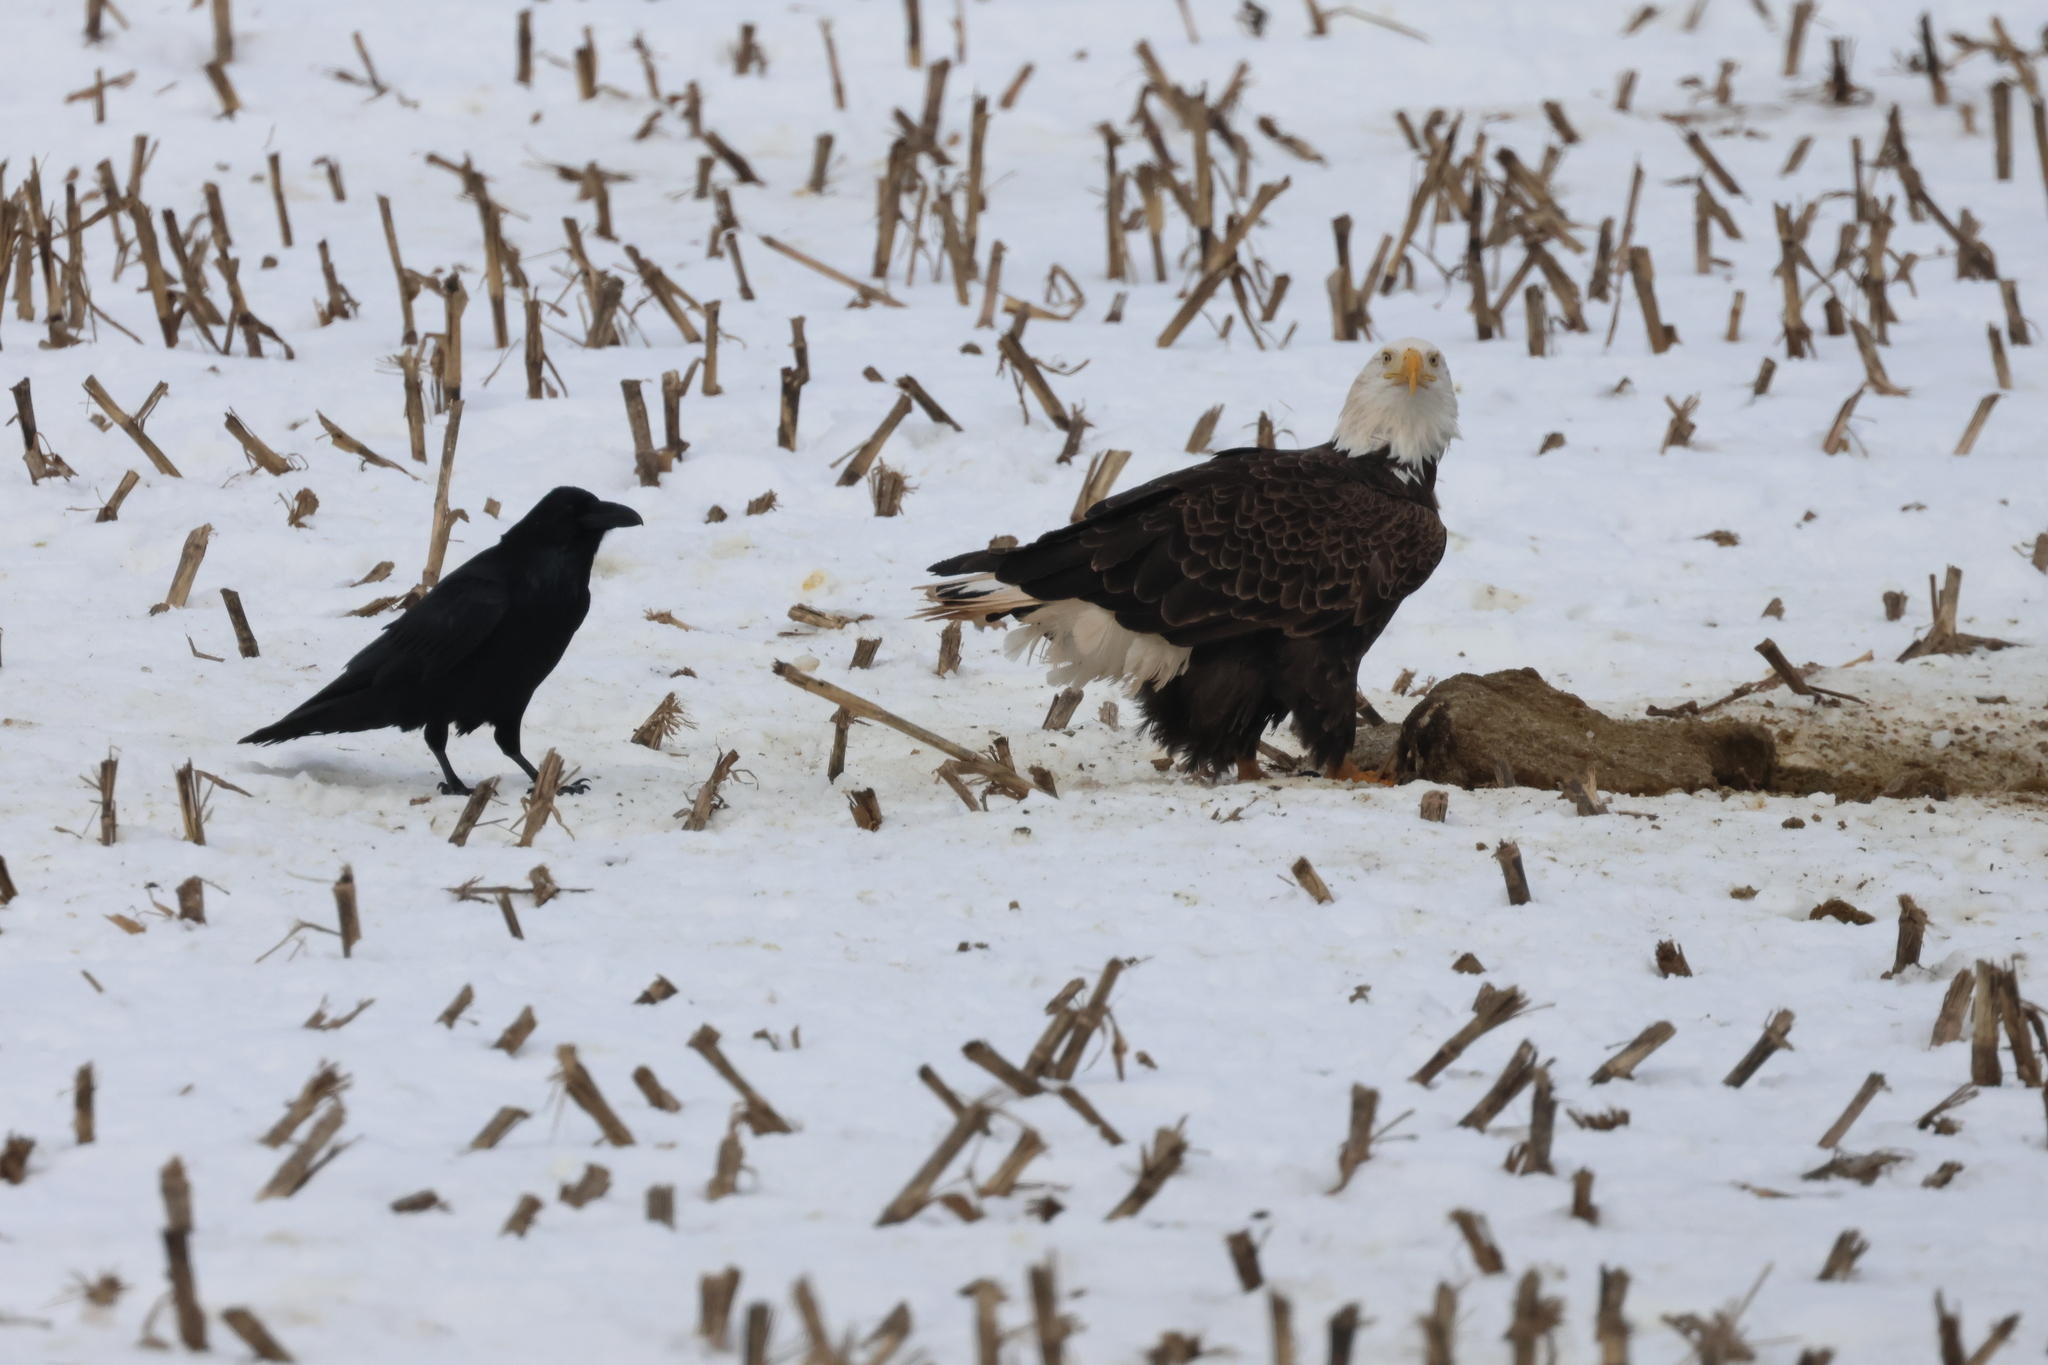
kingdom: Animalia
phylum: Chordata
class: Aves
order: Accipitriformes
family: Accipitridae
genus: Haliaeetus
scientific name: Haliaeetus leucocephalus
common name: Bald eagle
